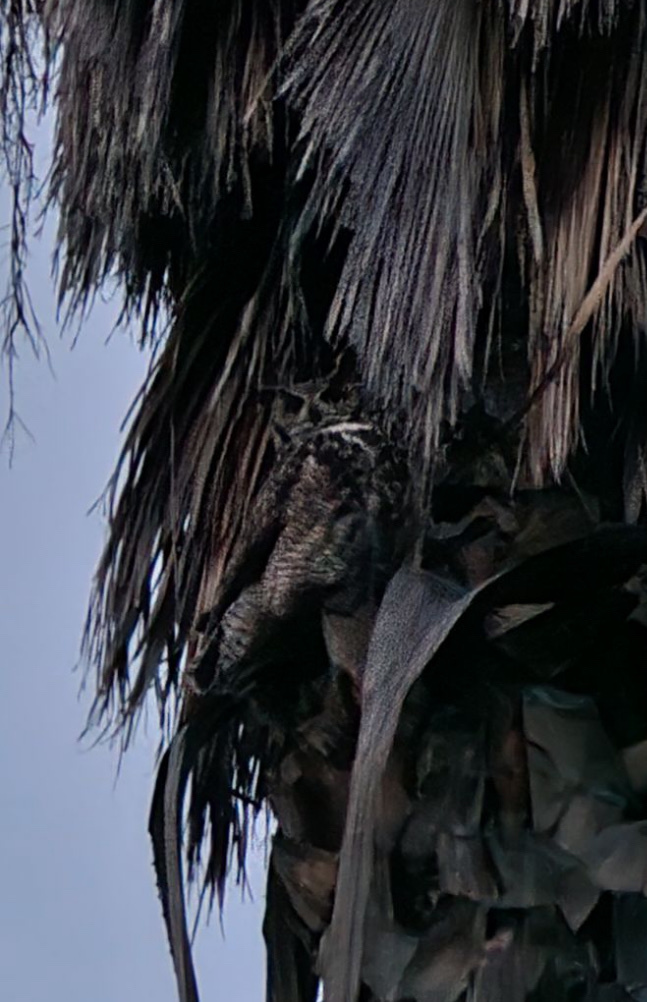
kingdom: Animalia
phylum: Chordata
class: Aves
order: Strigiformes
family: Strigidae
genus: Bubo
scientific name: Bubo virginianus
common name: Great horned owl
